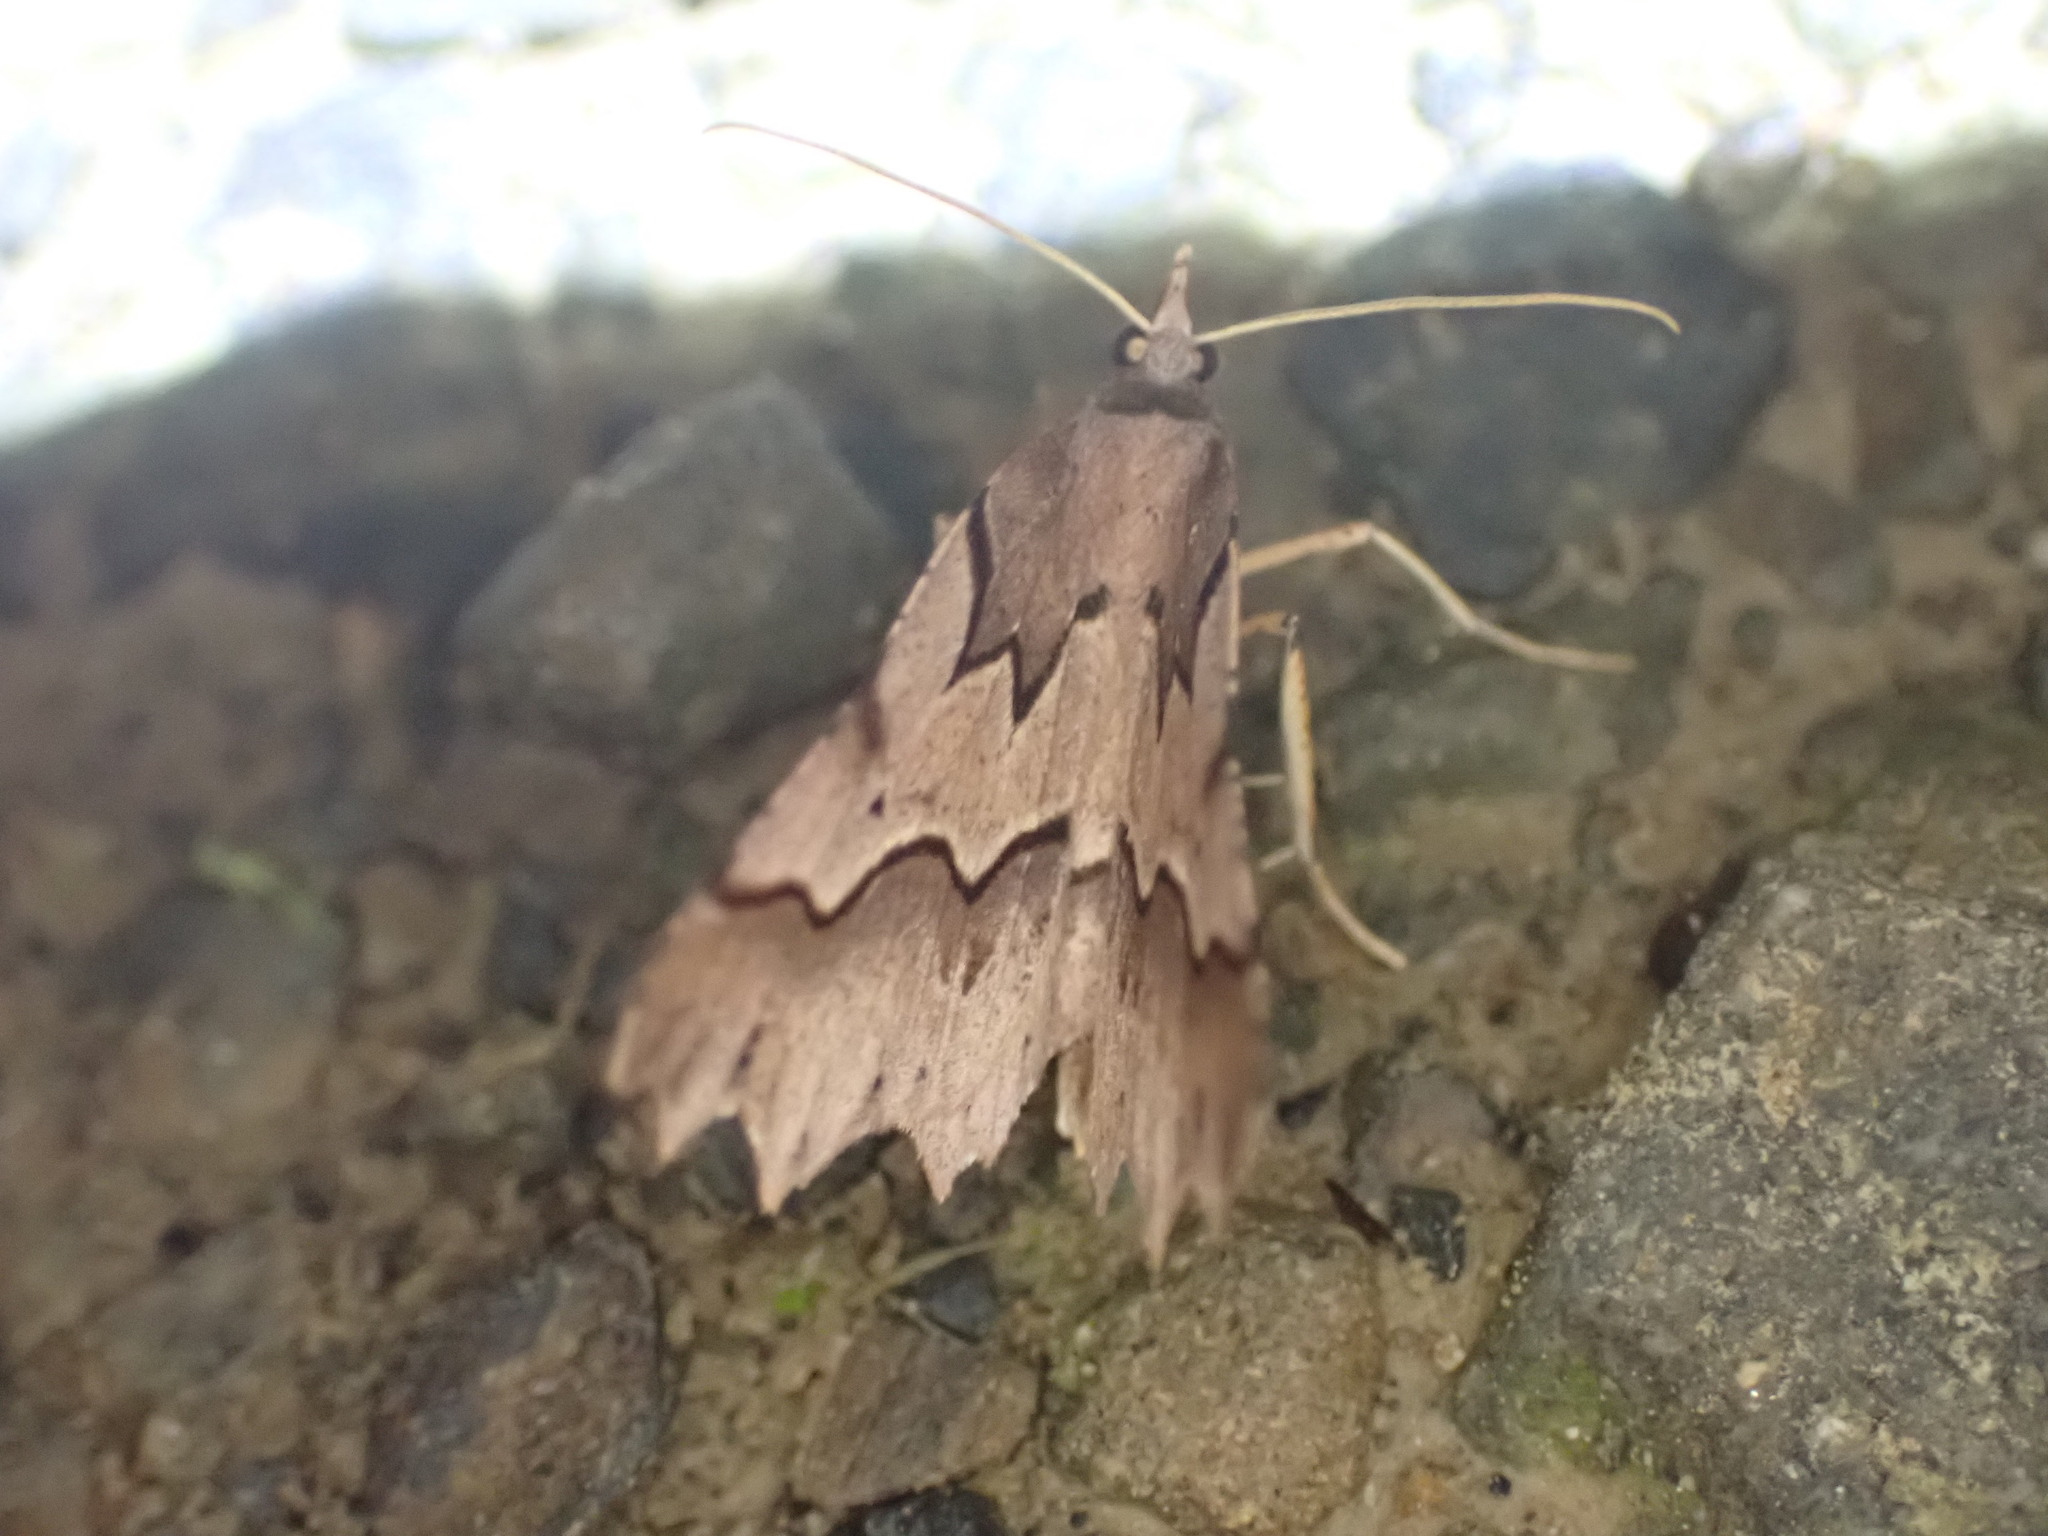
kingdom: Animalia
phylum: Arthropoda
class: Insecta
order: Lepidoptera
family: Geometridae
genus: Ischalis
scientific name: Ischalis fortinata
